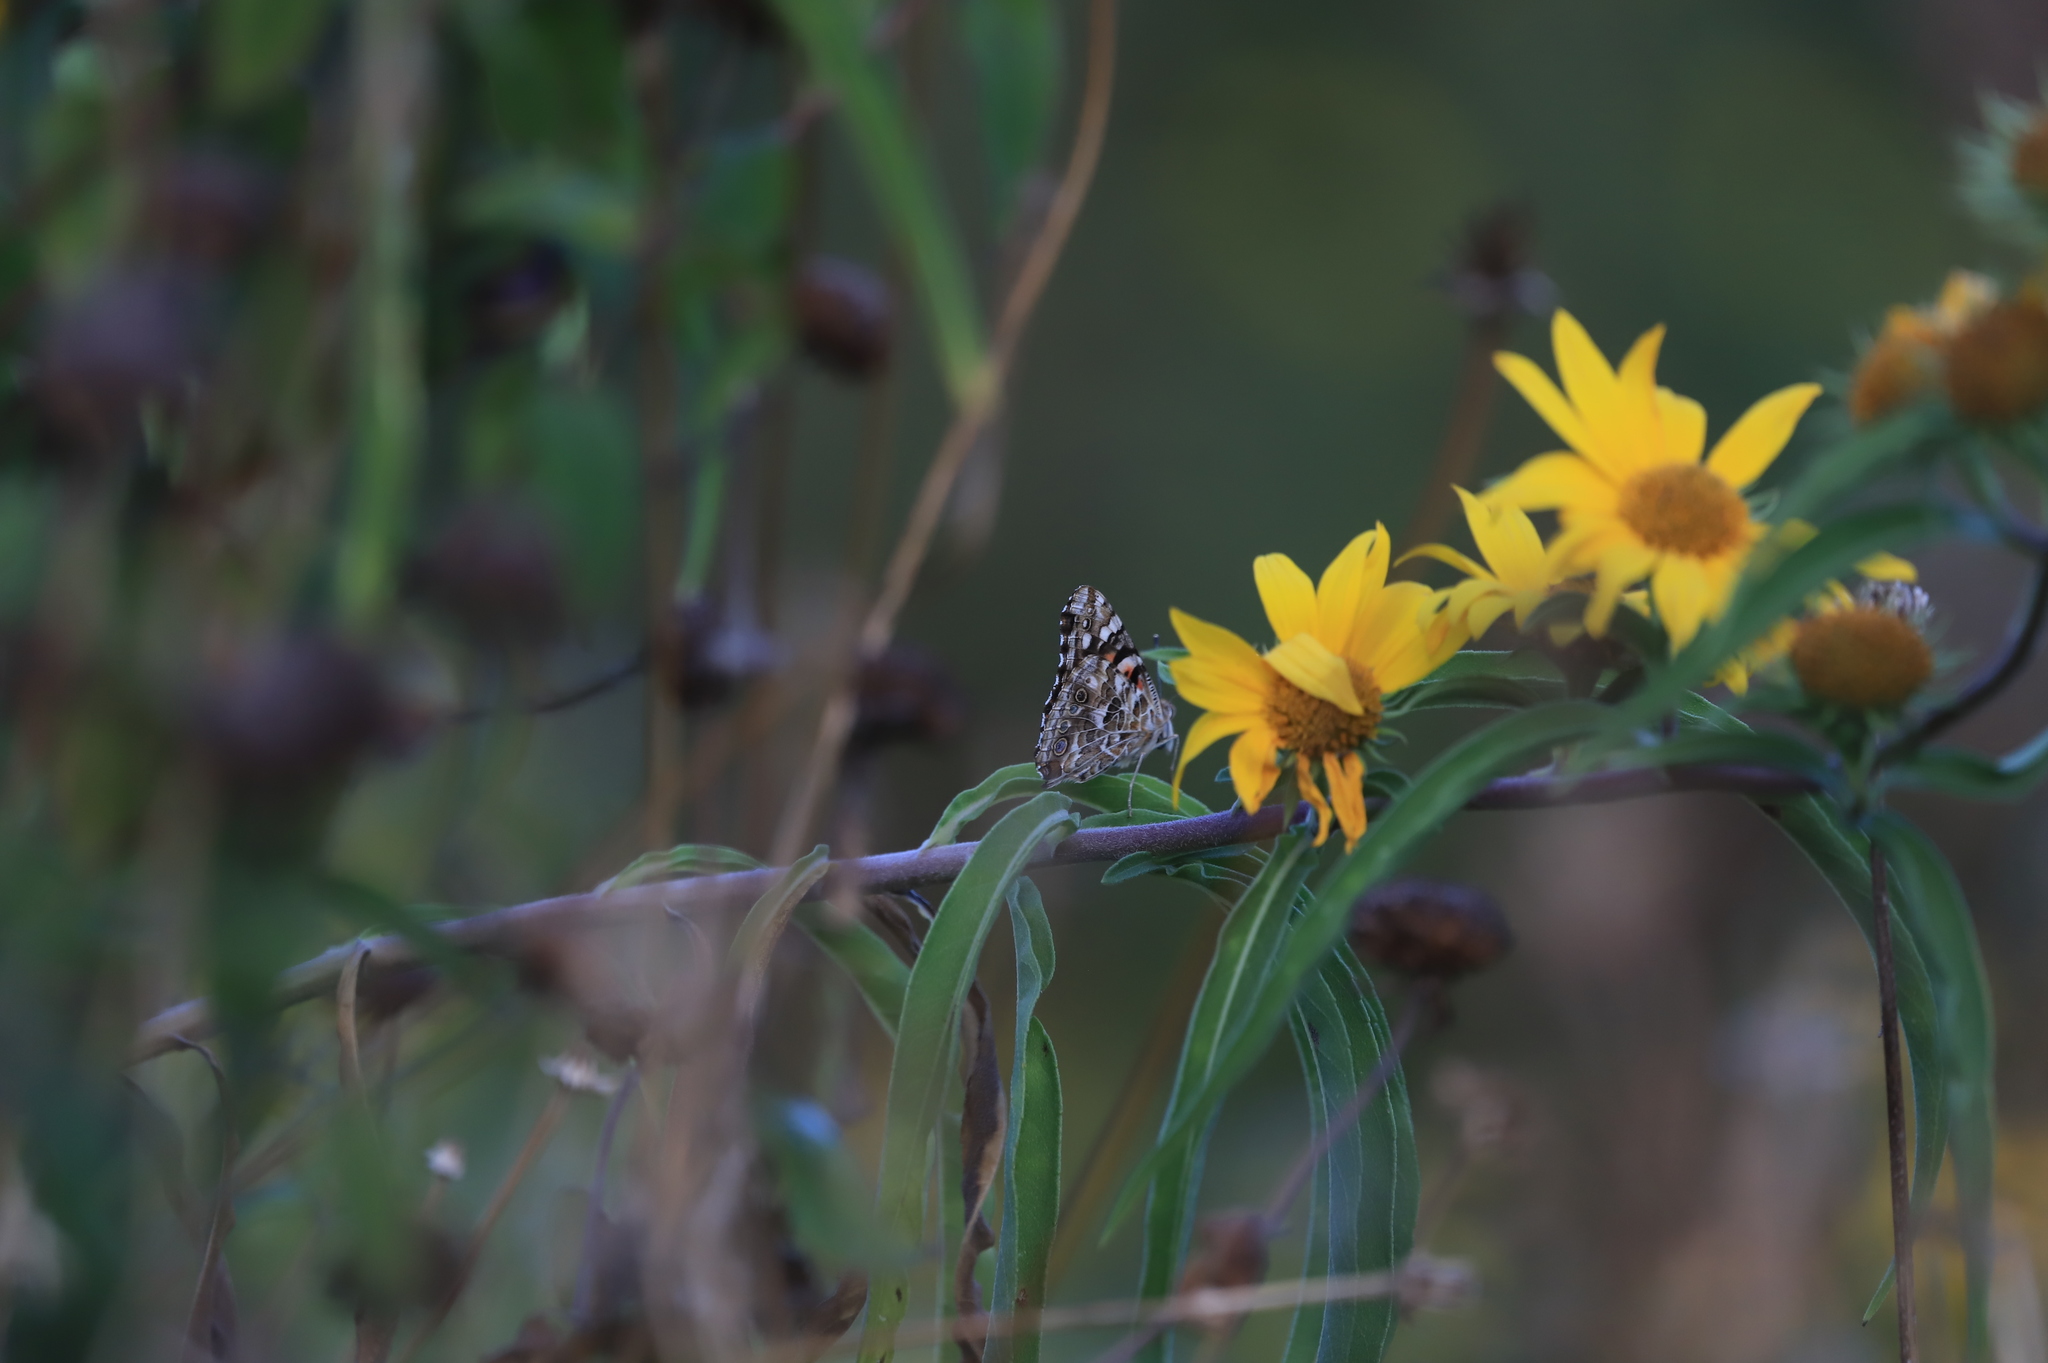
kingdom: Animalia
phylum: Arthropoda
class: Insecta
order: Lepidoptera
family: Nymphalidae
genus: Vanessa
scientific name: Vanessa cardui
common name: Painted lady
